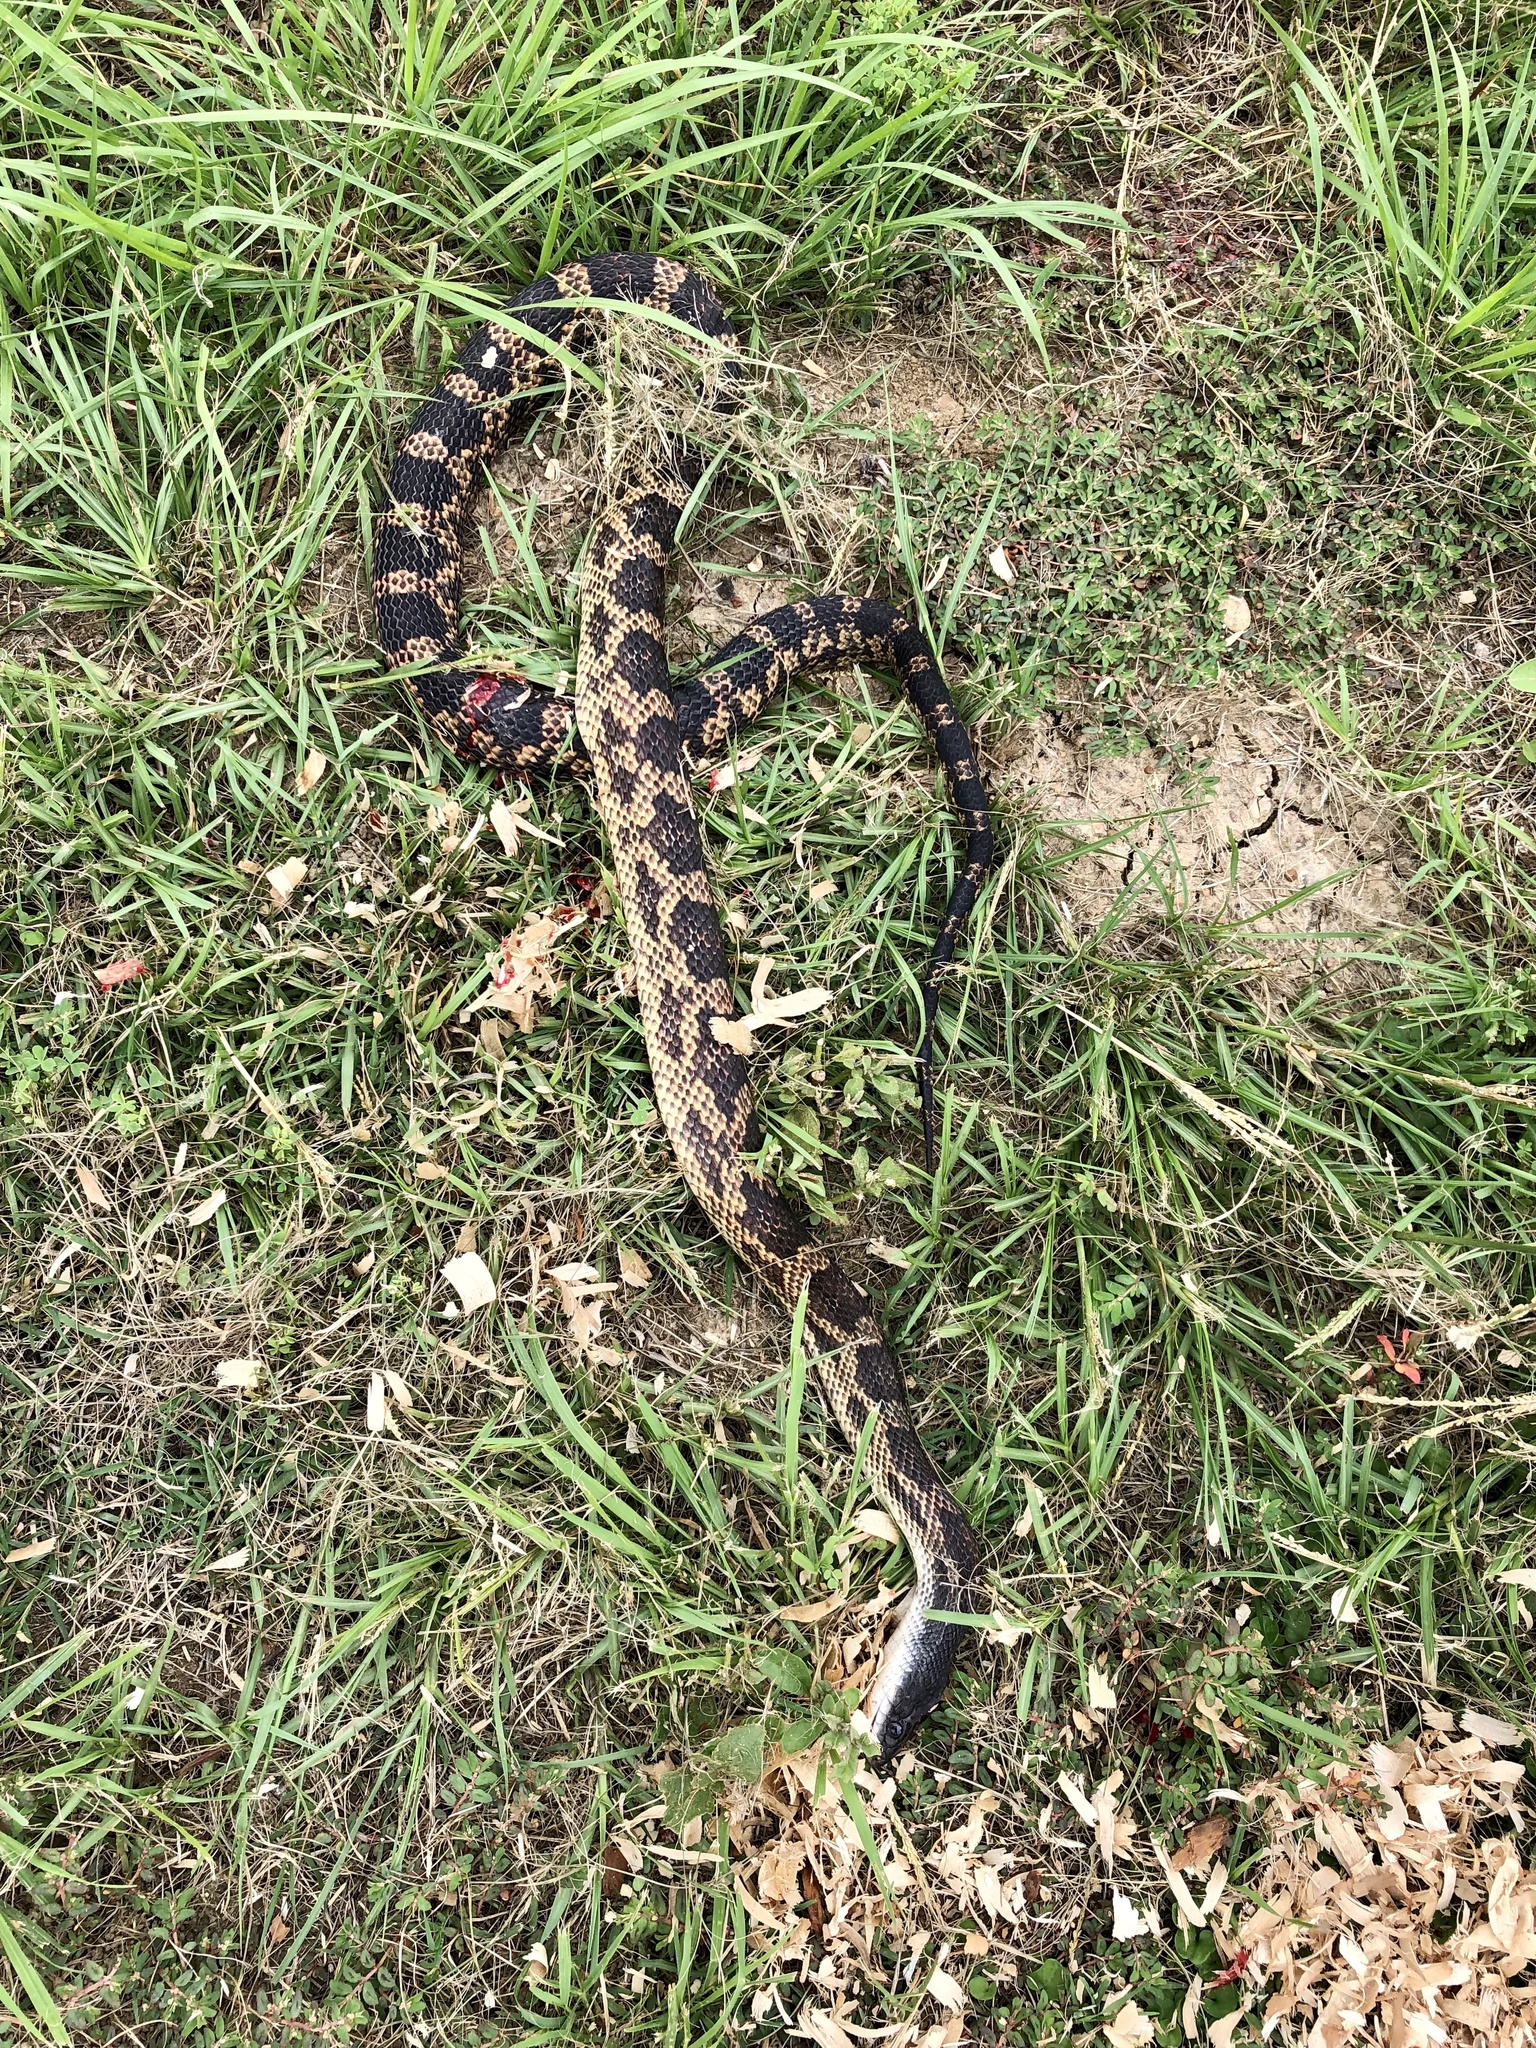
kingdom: Animalia
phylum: Chordata
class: Squamata
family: Colubridae
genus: Pantherophis
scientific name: Pantherophis obsoletus
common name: Black rat snake
